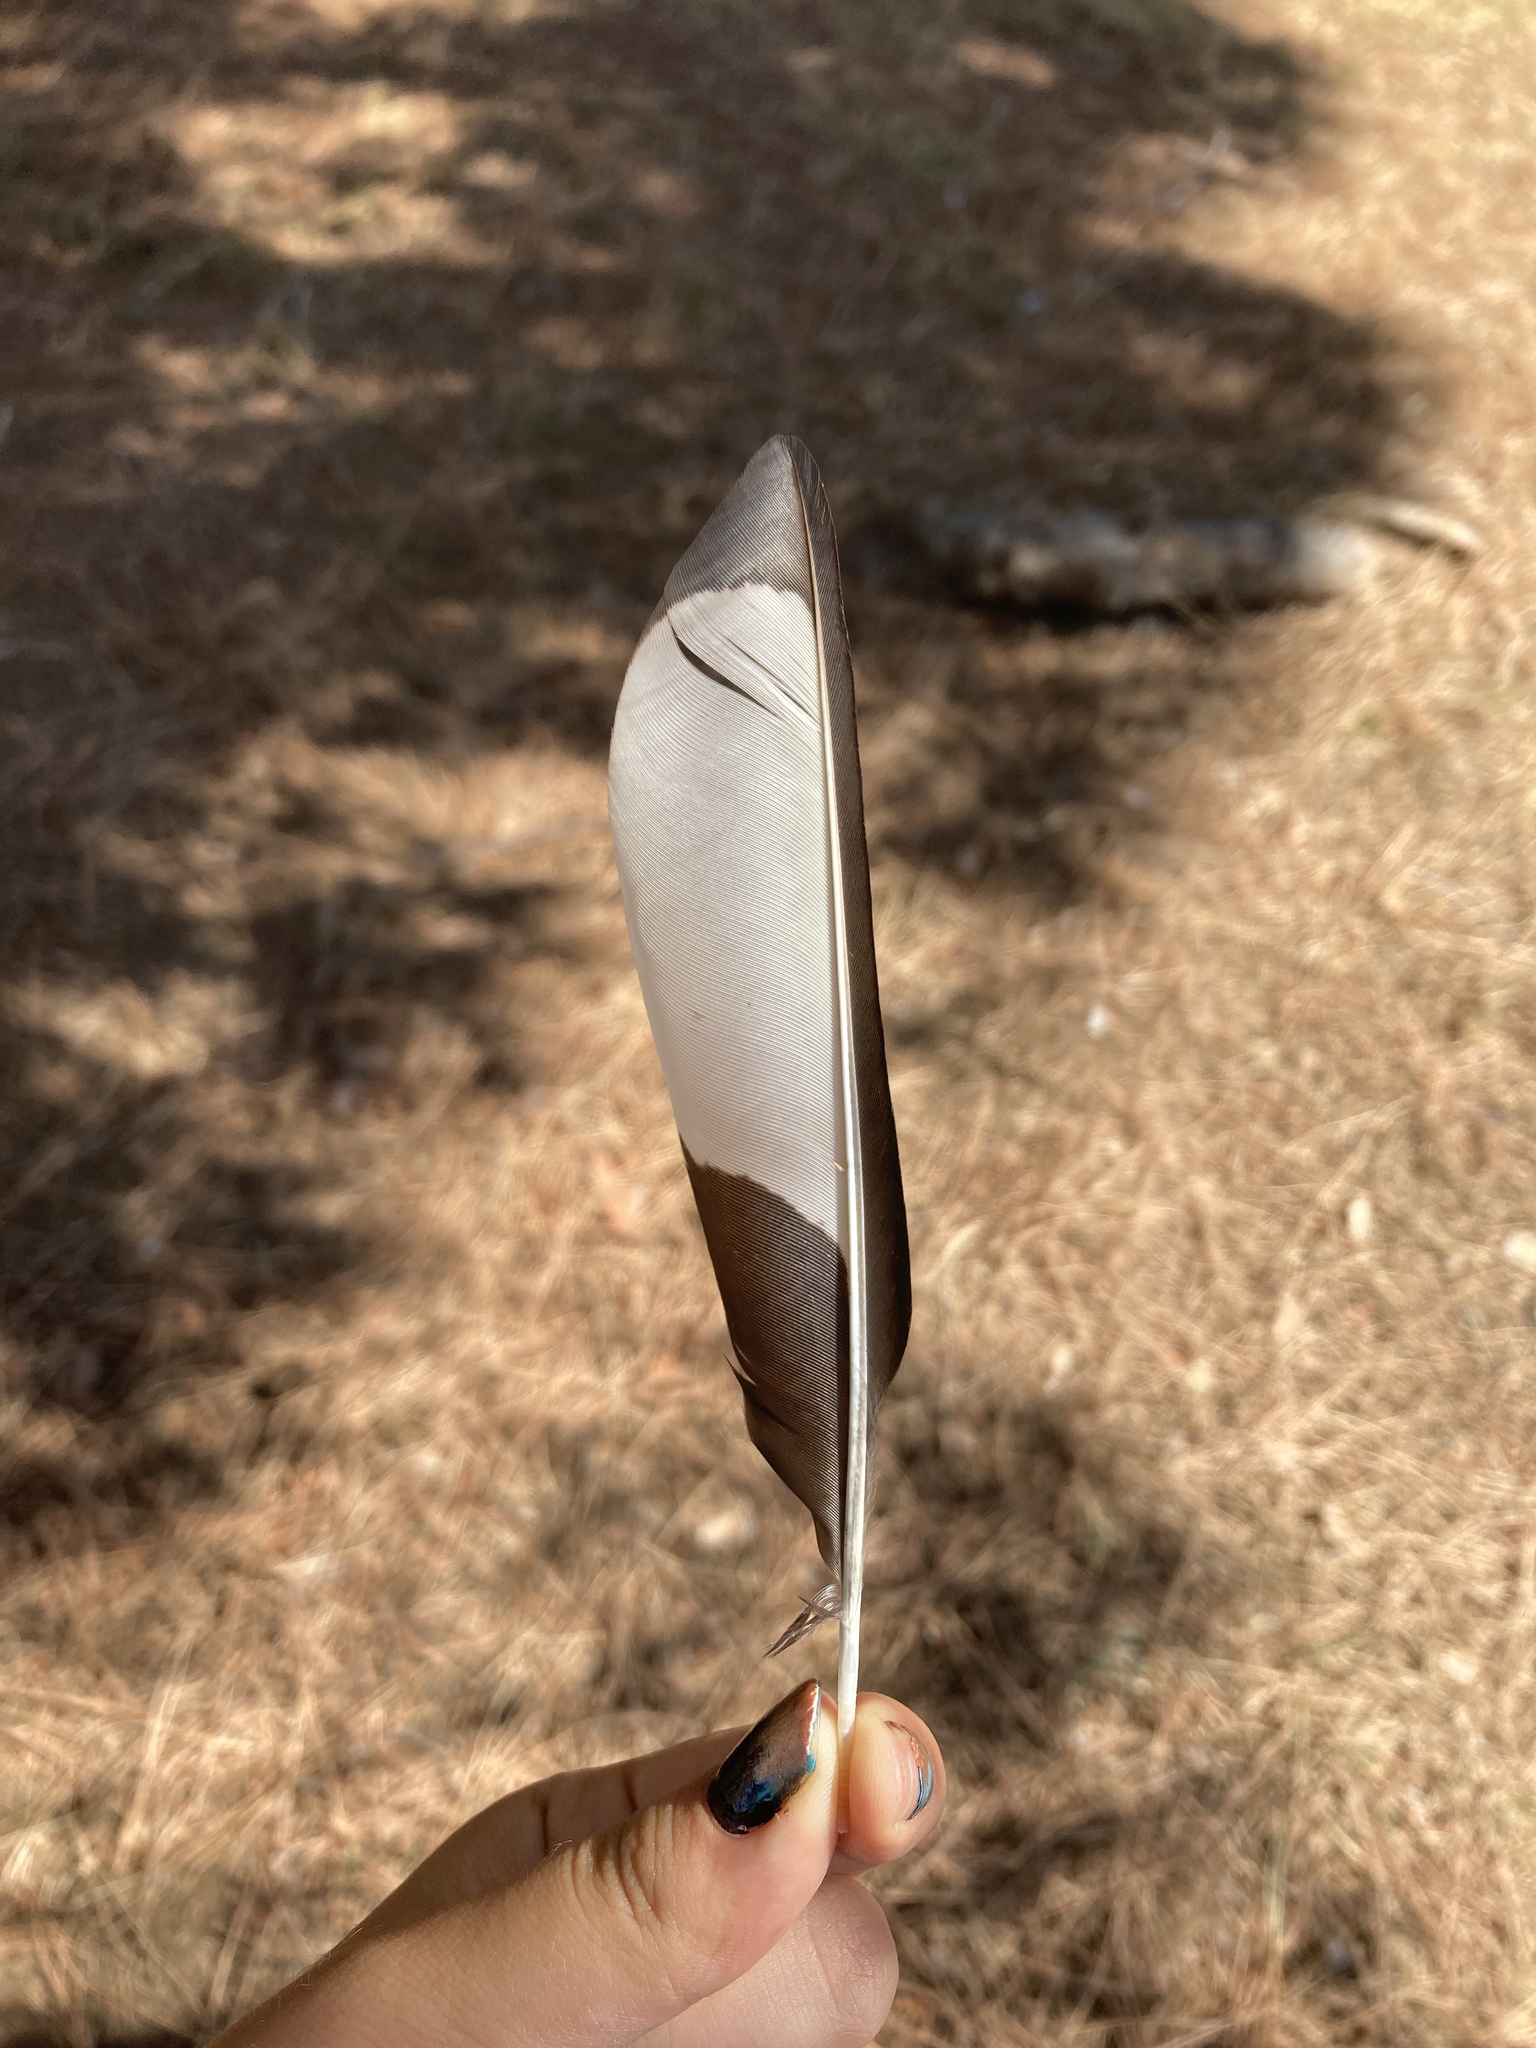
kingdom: Animalia
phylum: Chordata
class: Aves
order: Passeriformes
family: Corvidae
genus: Pica
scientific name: Pica pica
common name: Eurasian magpie
